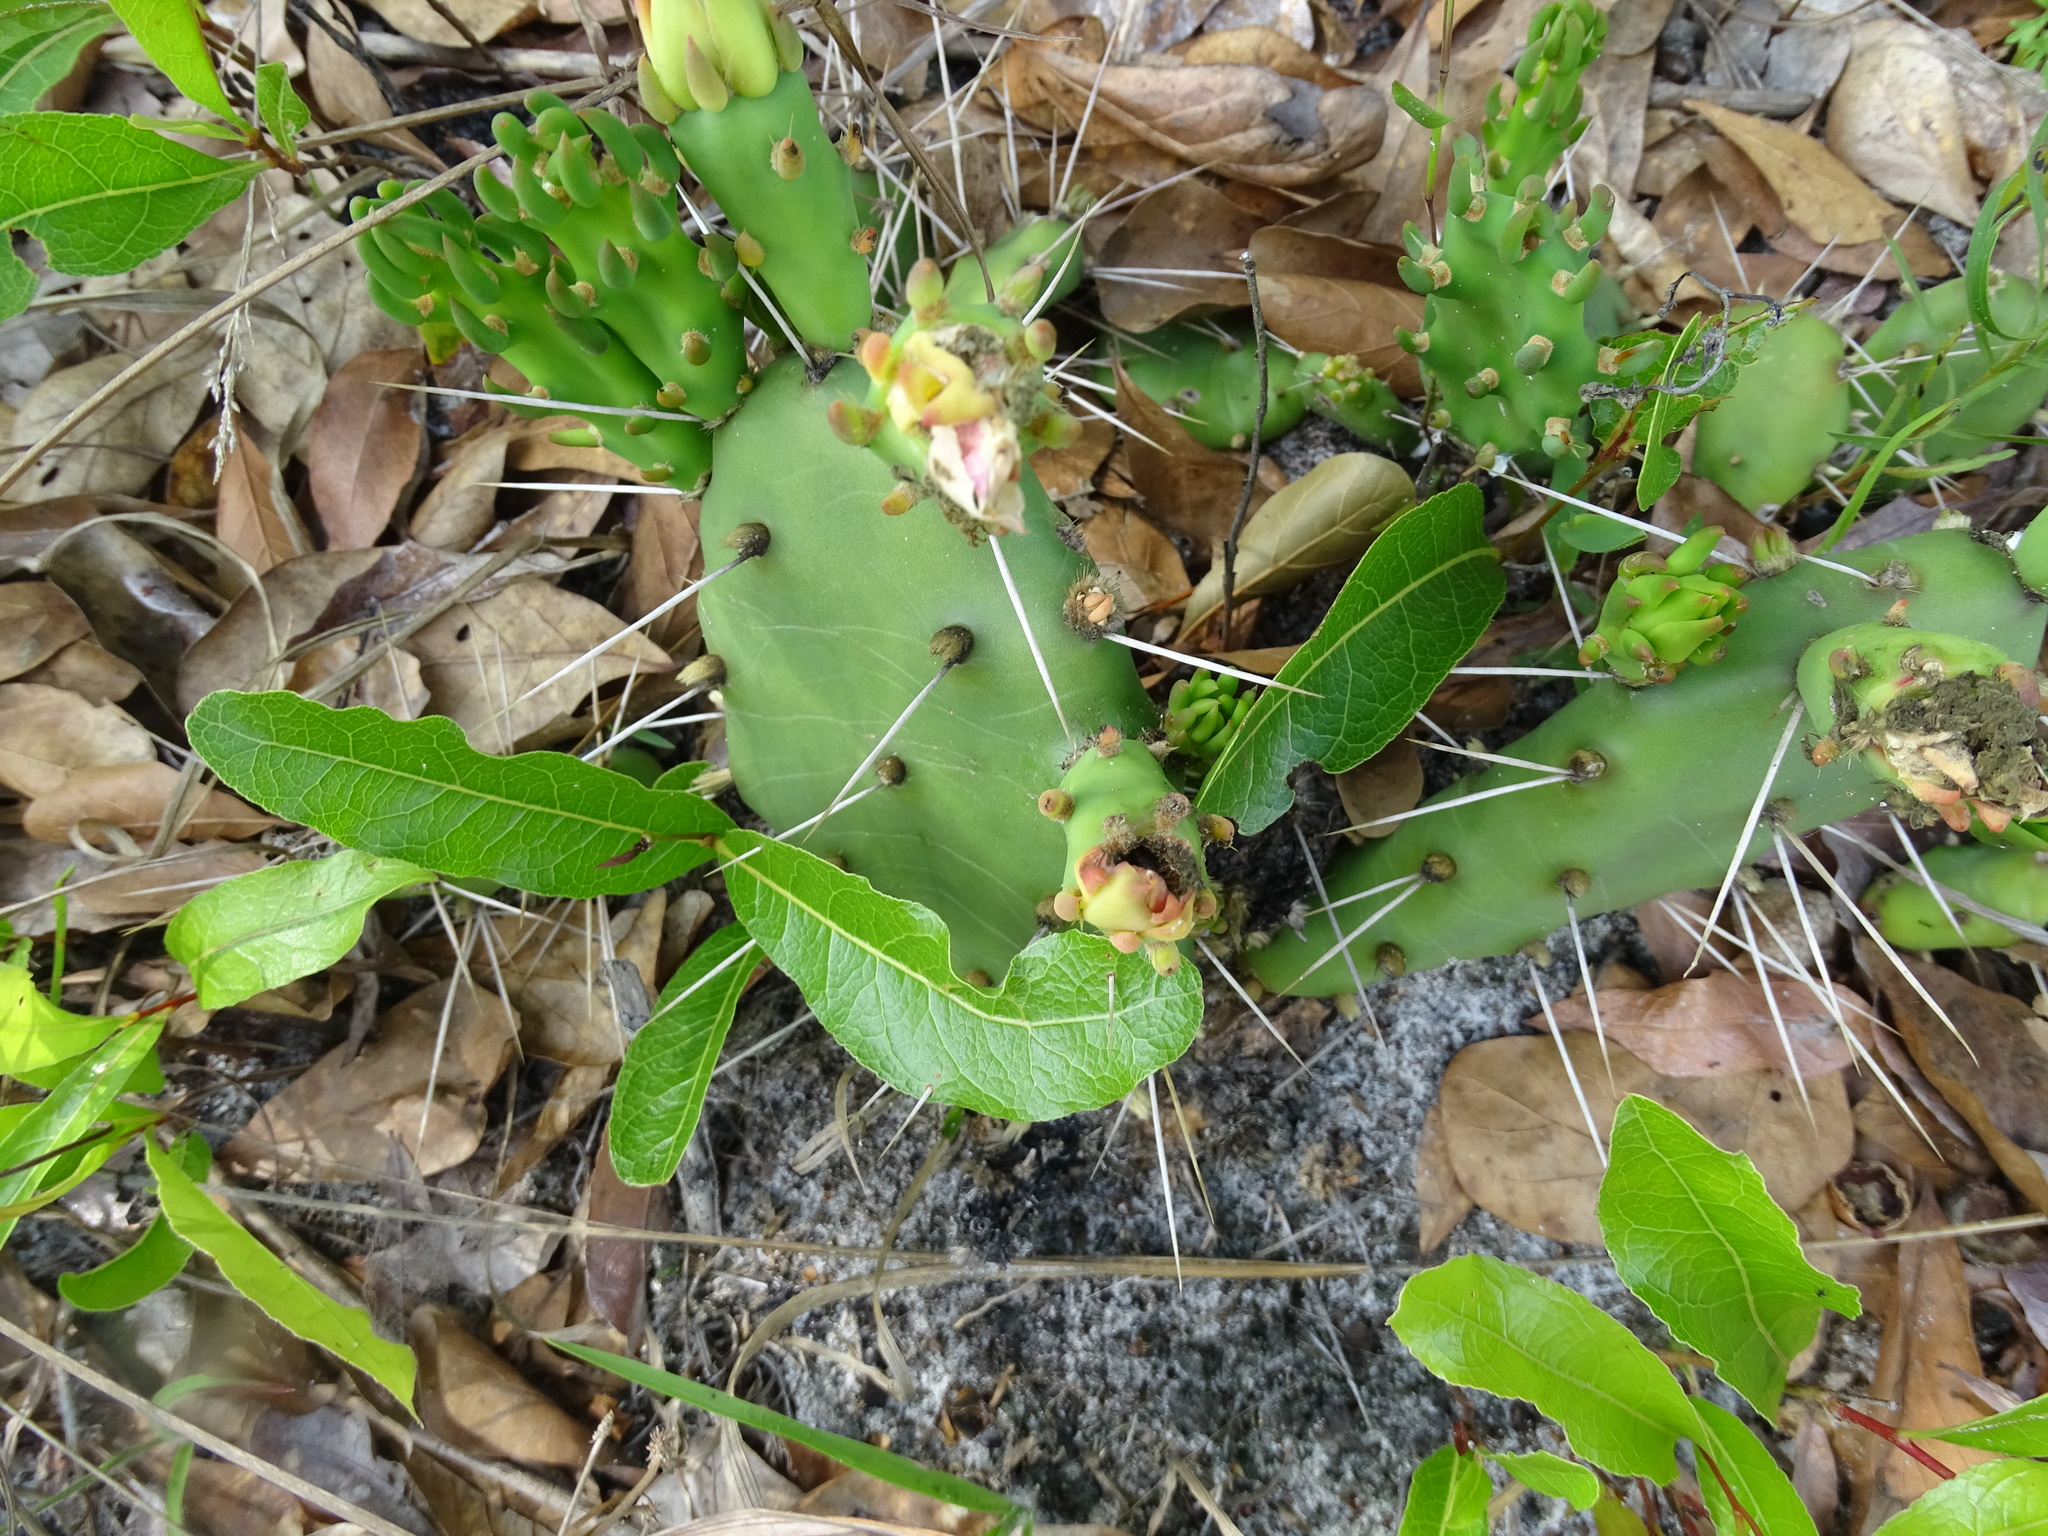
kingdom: Plantae
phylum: Tracheophyta
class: Magnoliopsida
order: Caryophyllales
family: Cactaceae
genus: Opuntia
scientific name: Opuntia austrina
